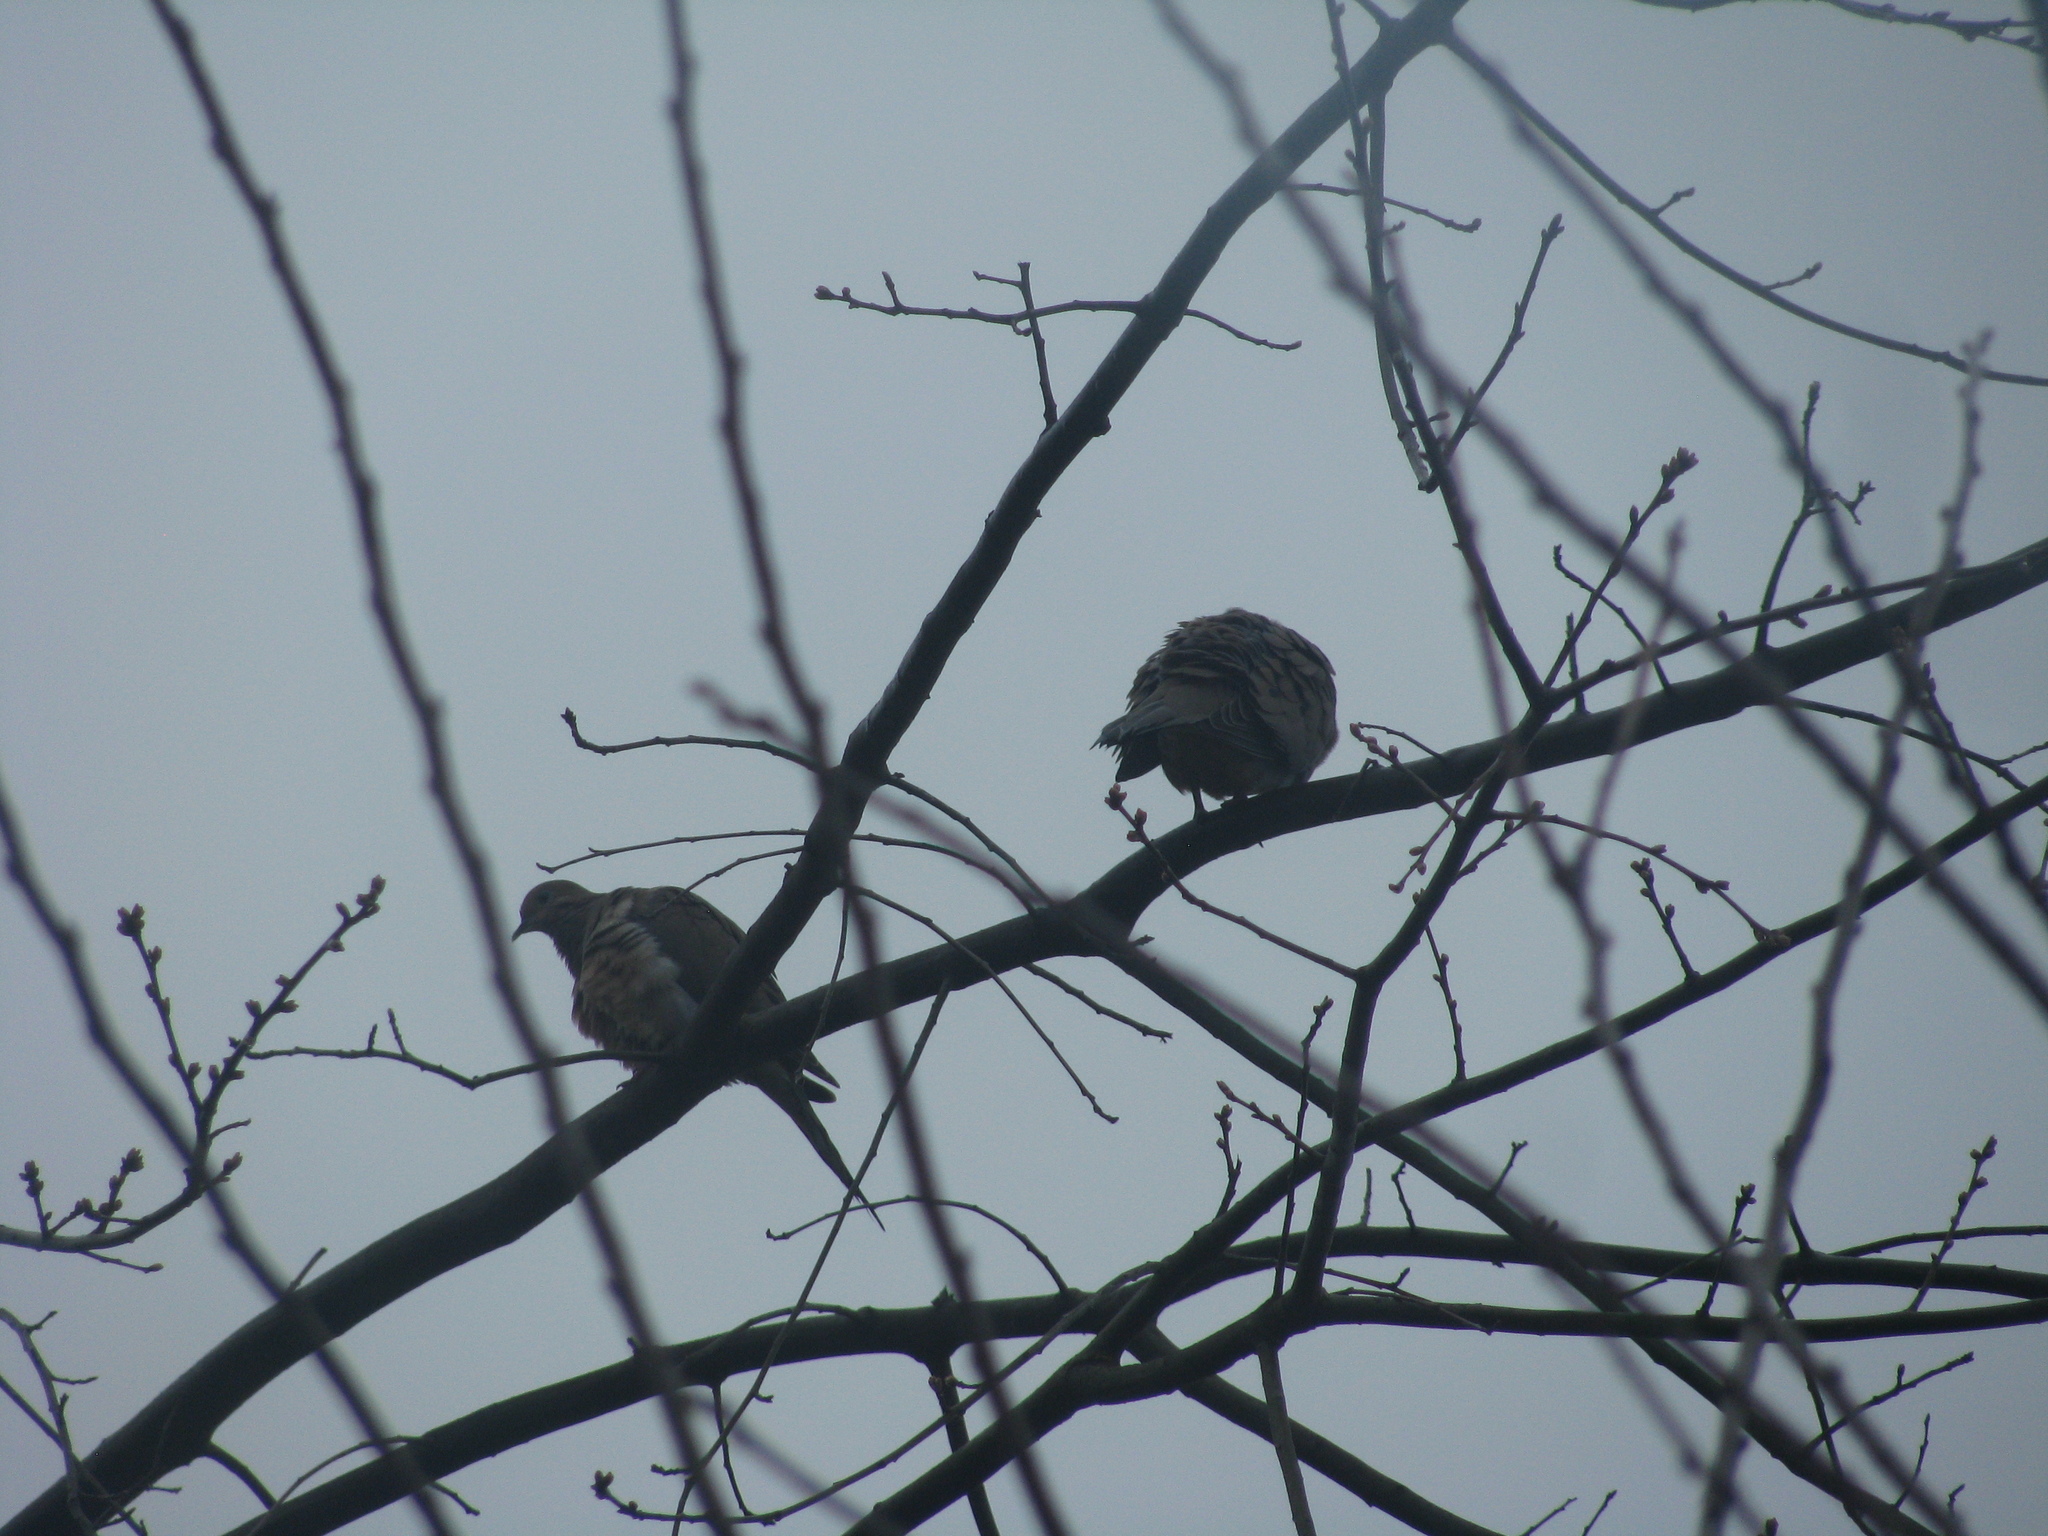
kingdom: Animalia
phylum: Chordata
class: Aves
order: Columbiformes
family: Columbidae
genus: Zenaida
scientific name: Zenaida macroura
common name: Mourning dove
